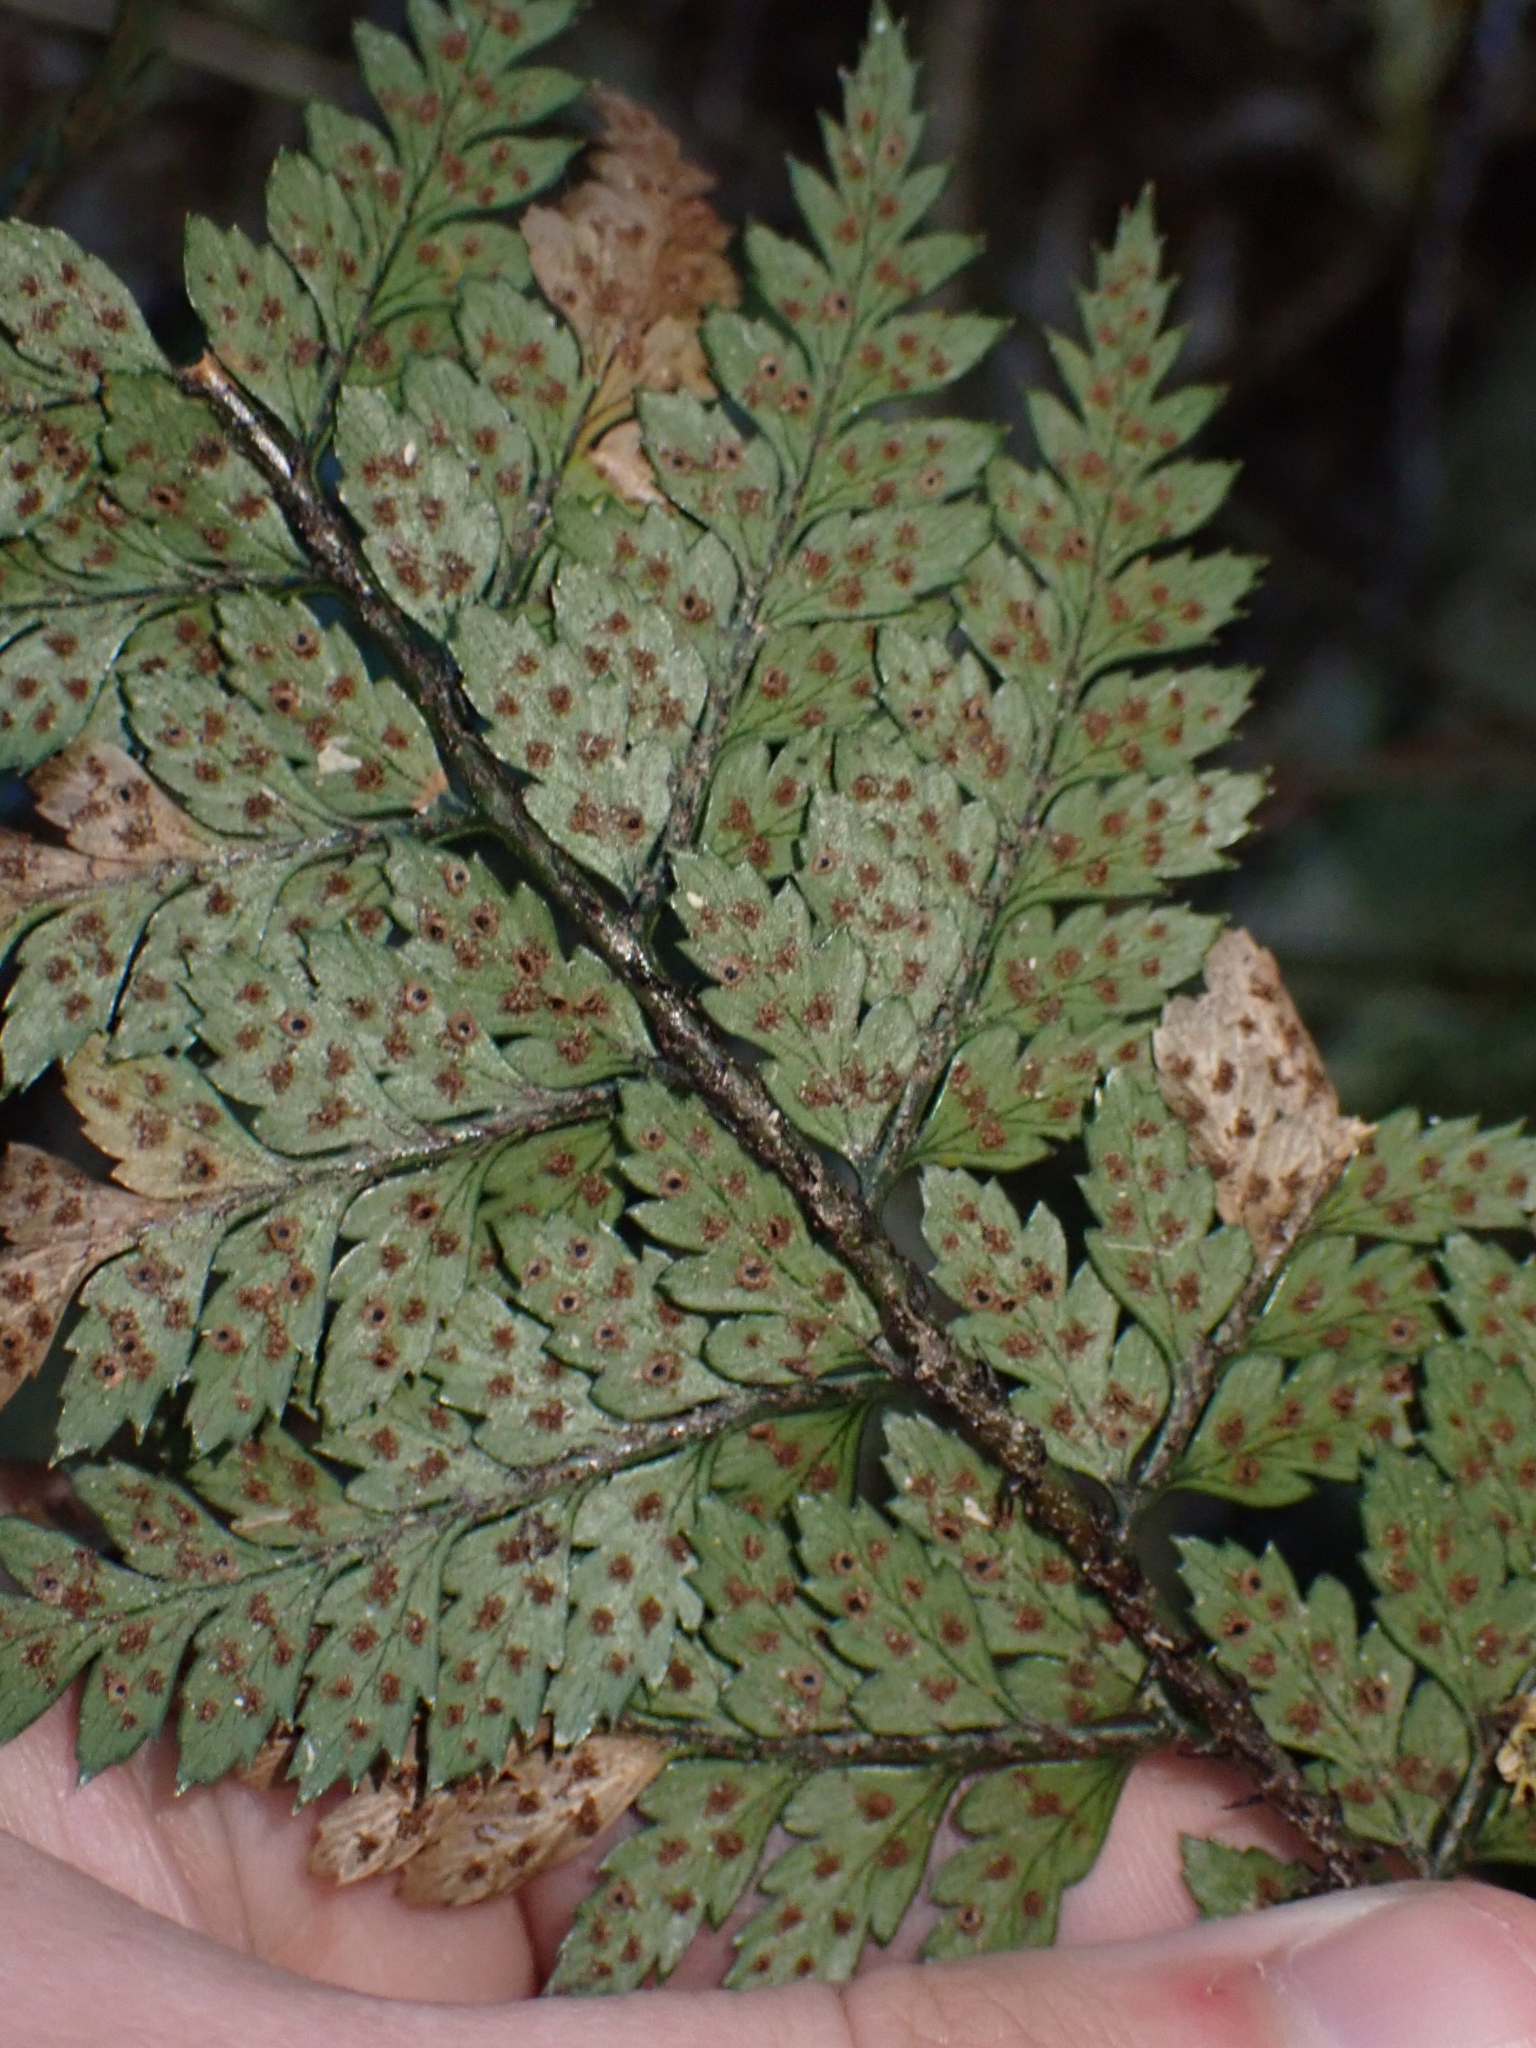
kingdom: Plantae
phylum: Tracheophyta
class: Polypodiopsida
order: Polypodiales
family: Dryopteridaceae
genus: Polystichum
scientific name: Polystichum neozelandicum
